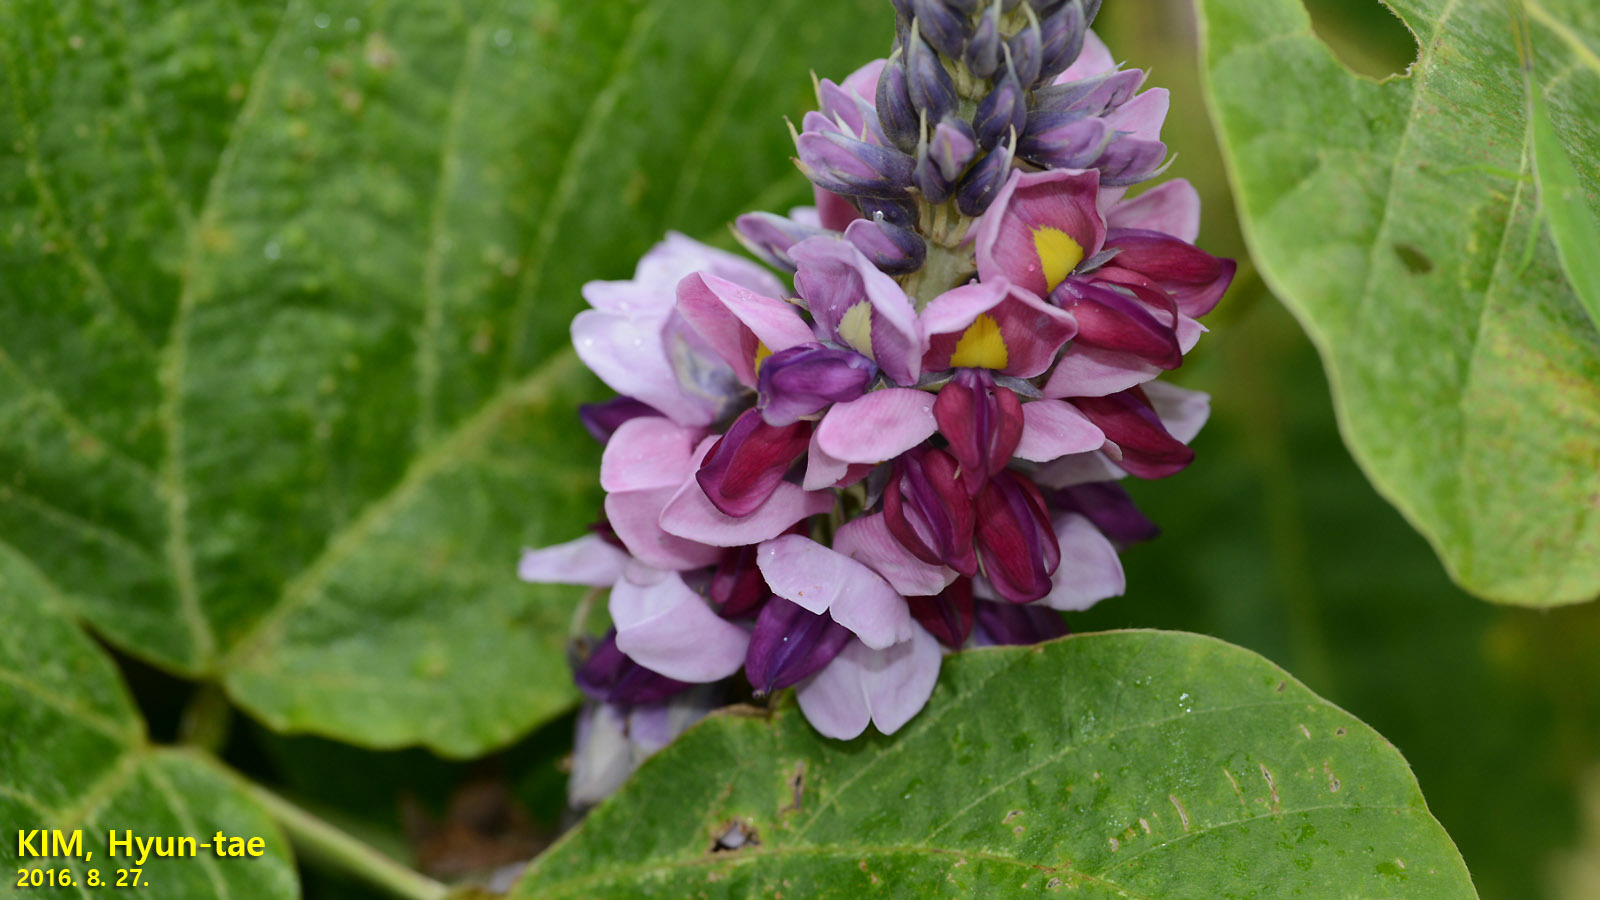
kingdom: Plantae
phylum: Tracheophyta
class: Magnoliopsida
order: Fabales
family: Fabaceae
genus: Pueraria
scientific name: Pueraria montana
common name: Kudzu
